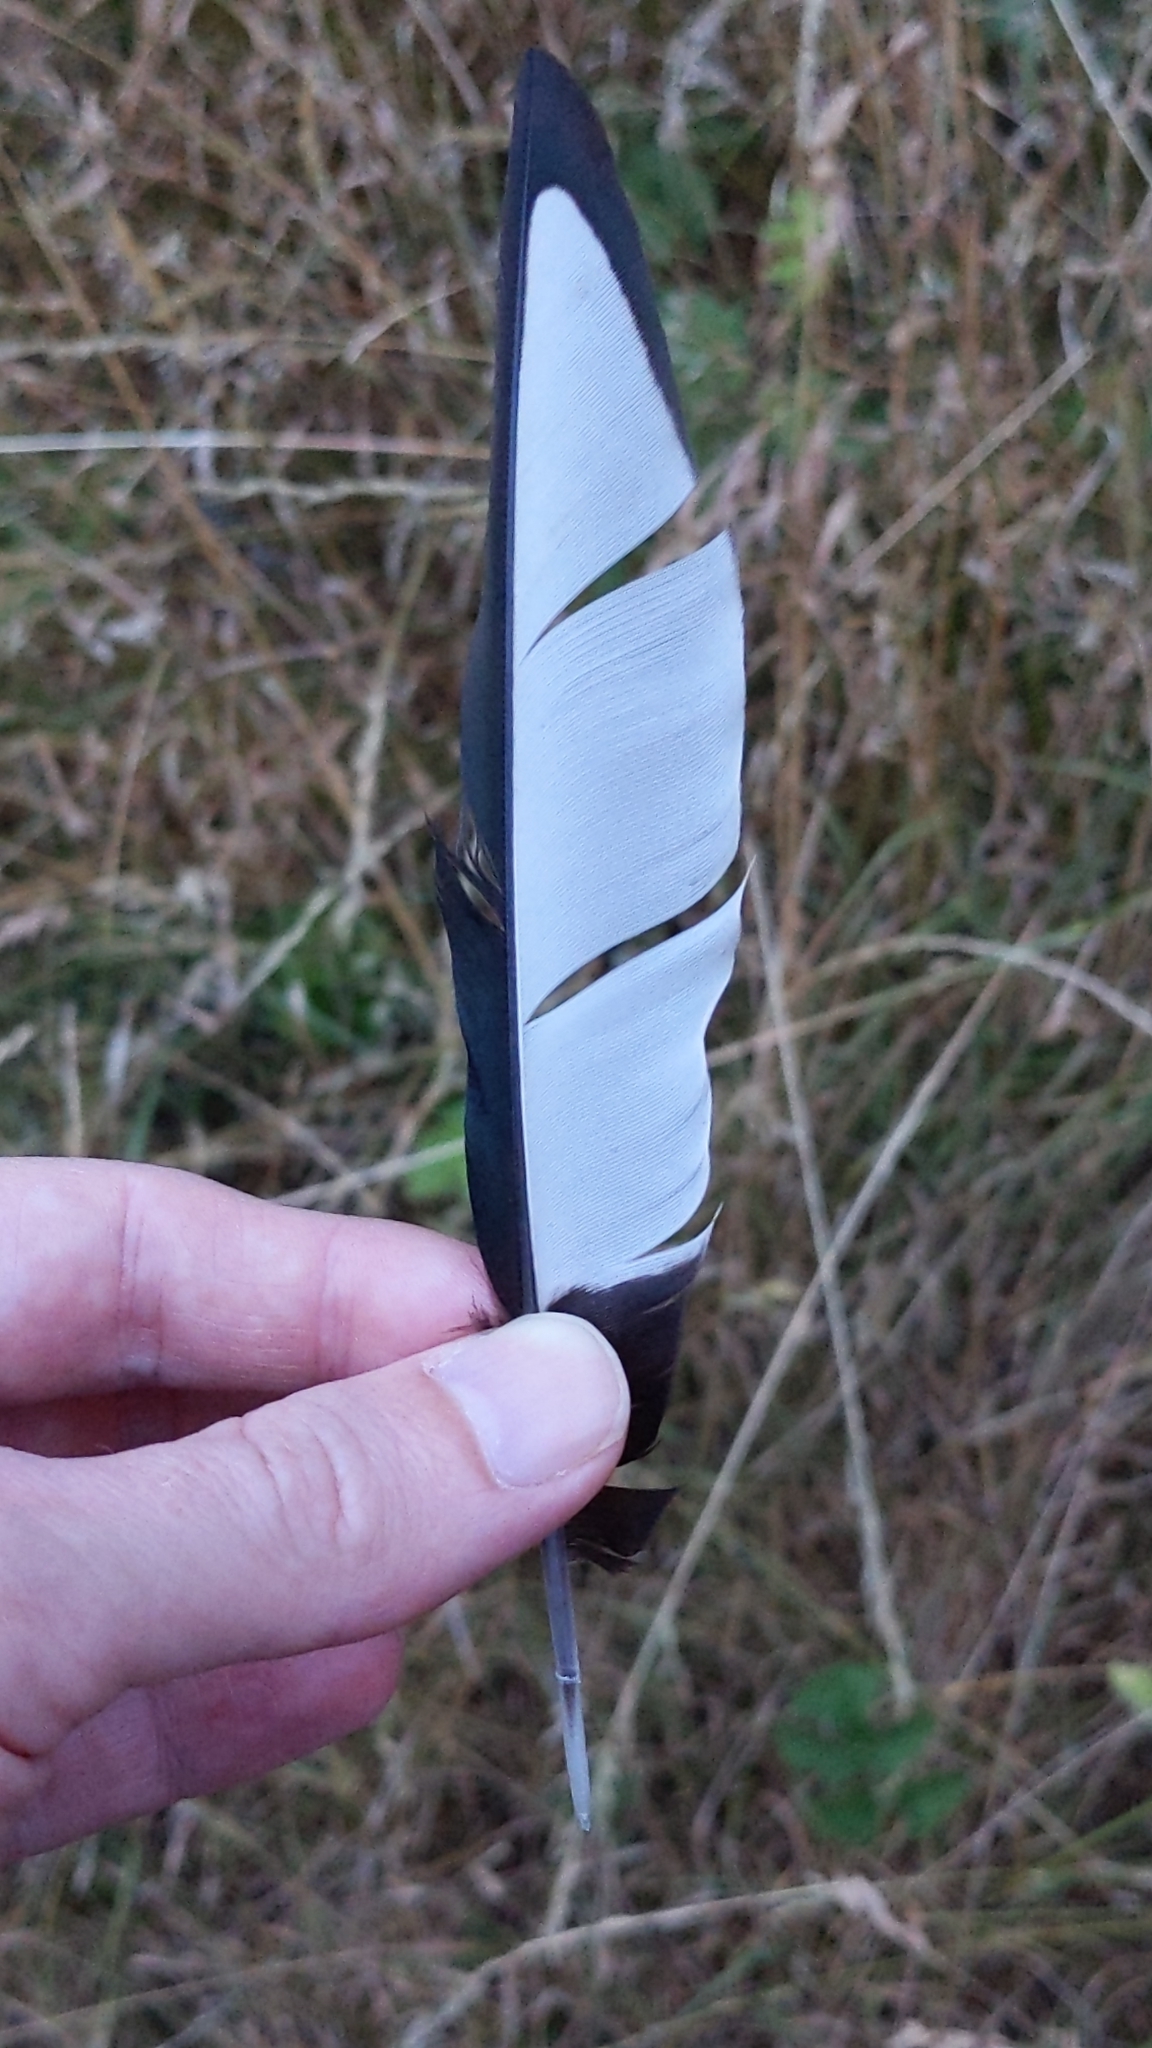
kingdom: Animalia
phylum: Chordata
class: Aves
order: Passeriformes
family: Corvidae
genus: Pica
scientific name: Pica pica
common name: Eurasian magpie
